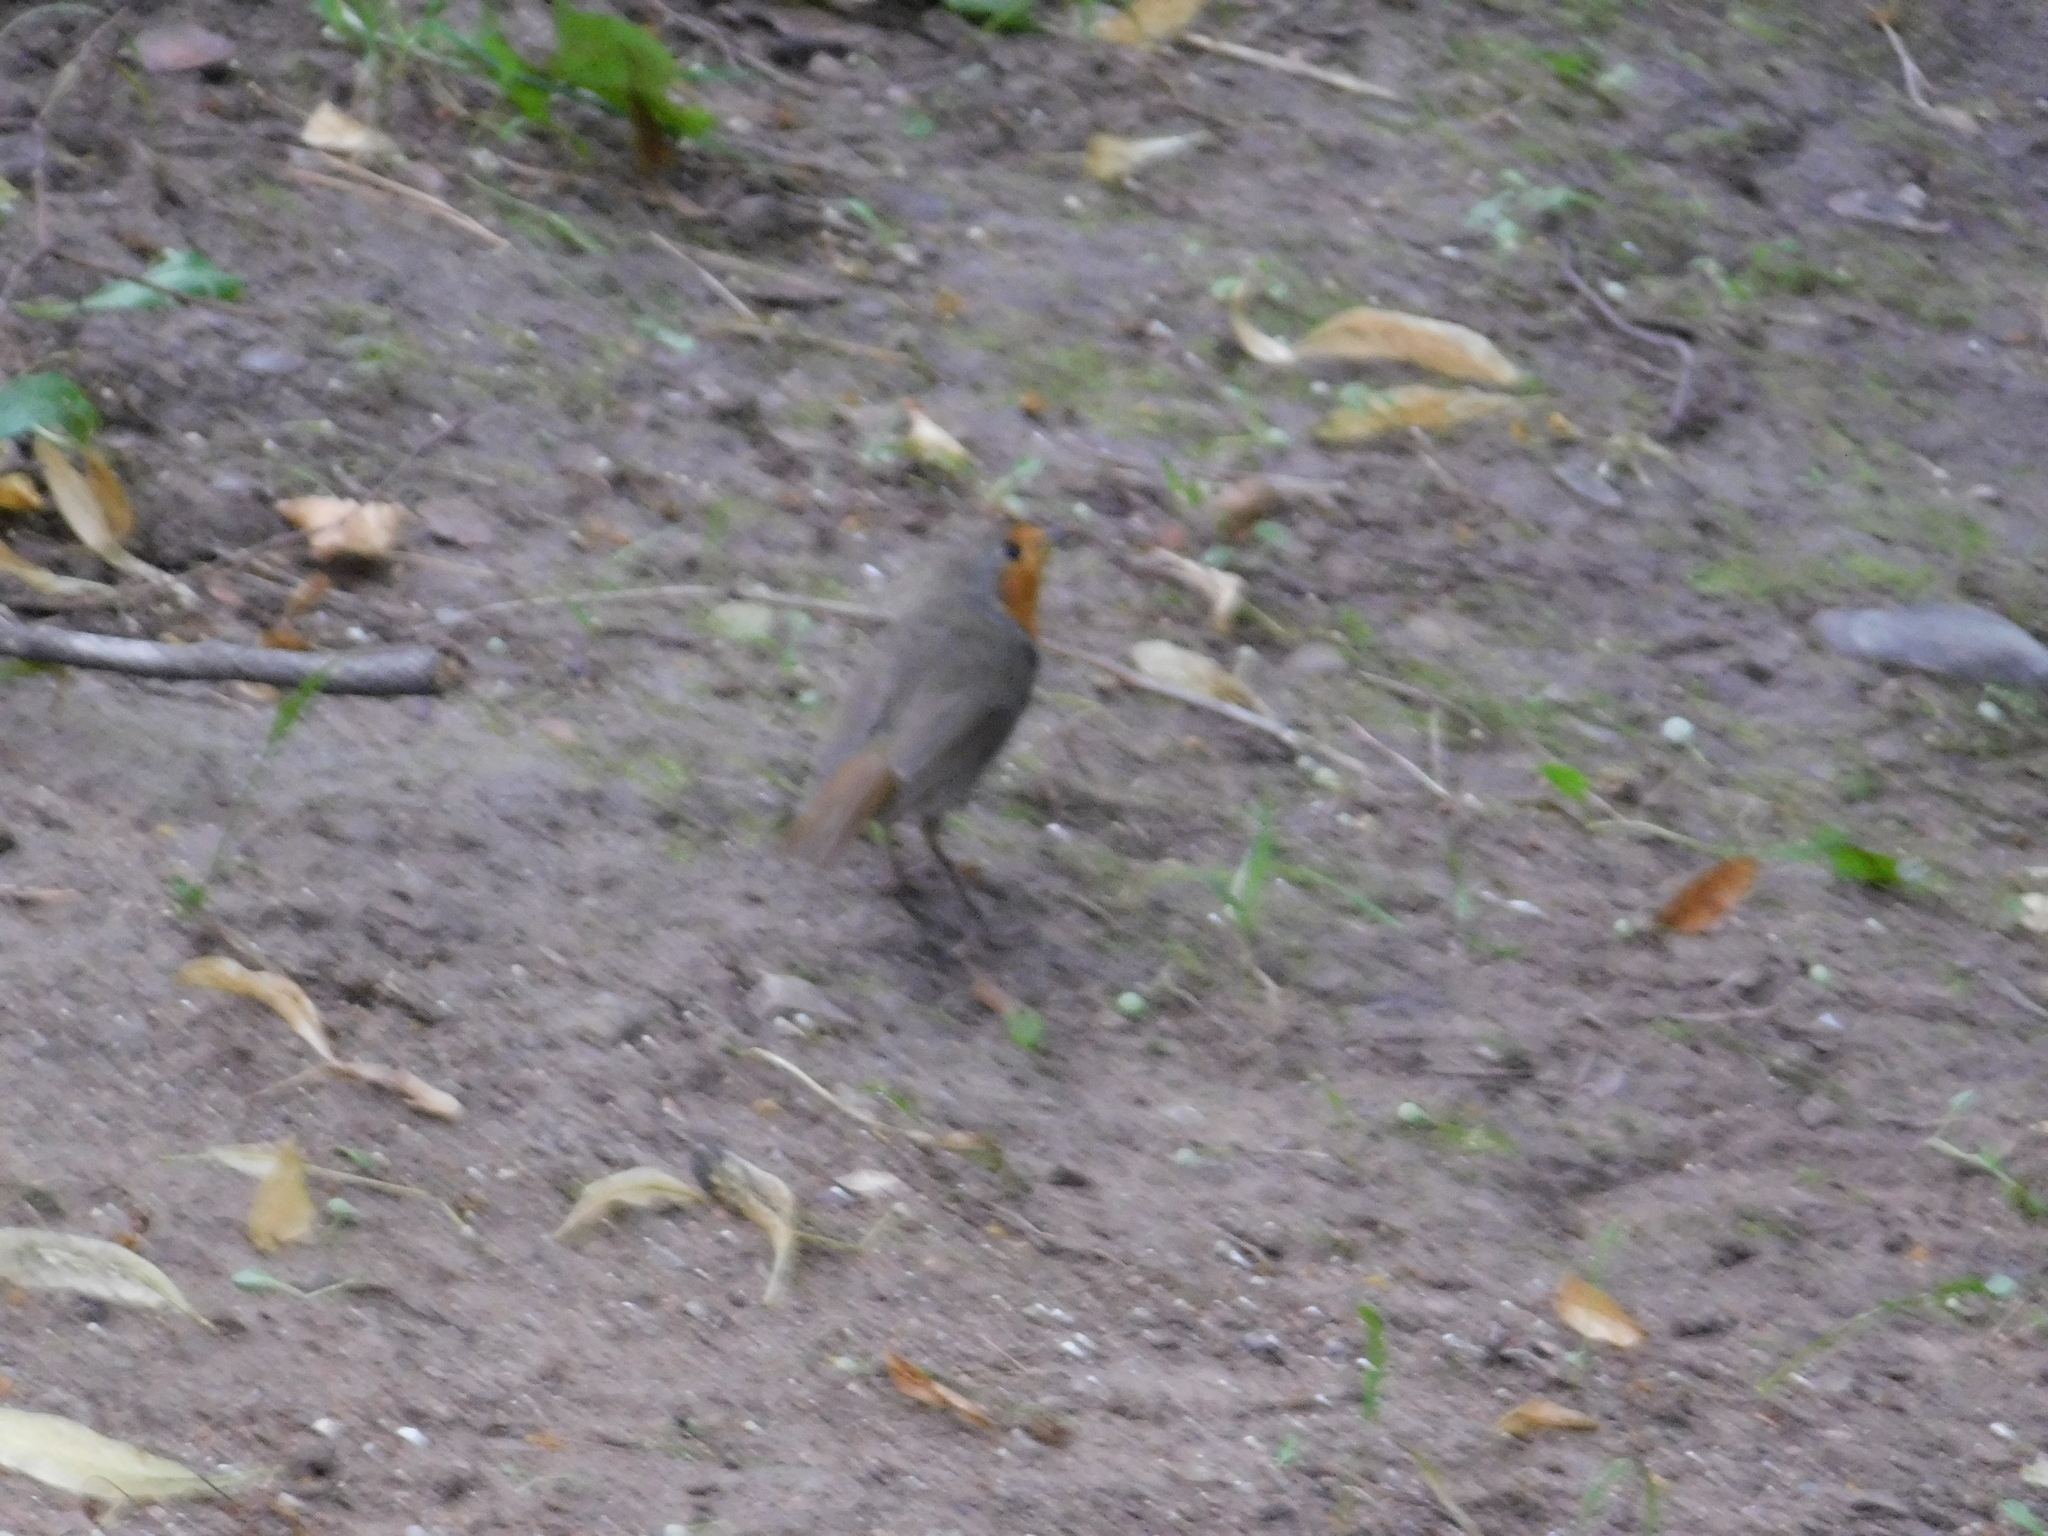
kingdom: Animalia
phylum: Chordata
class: Aves
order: Passeriformes
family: Muscicapidae
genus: Erithacus
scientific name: Erithacus rubecula
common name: European robin
